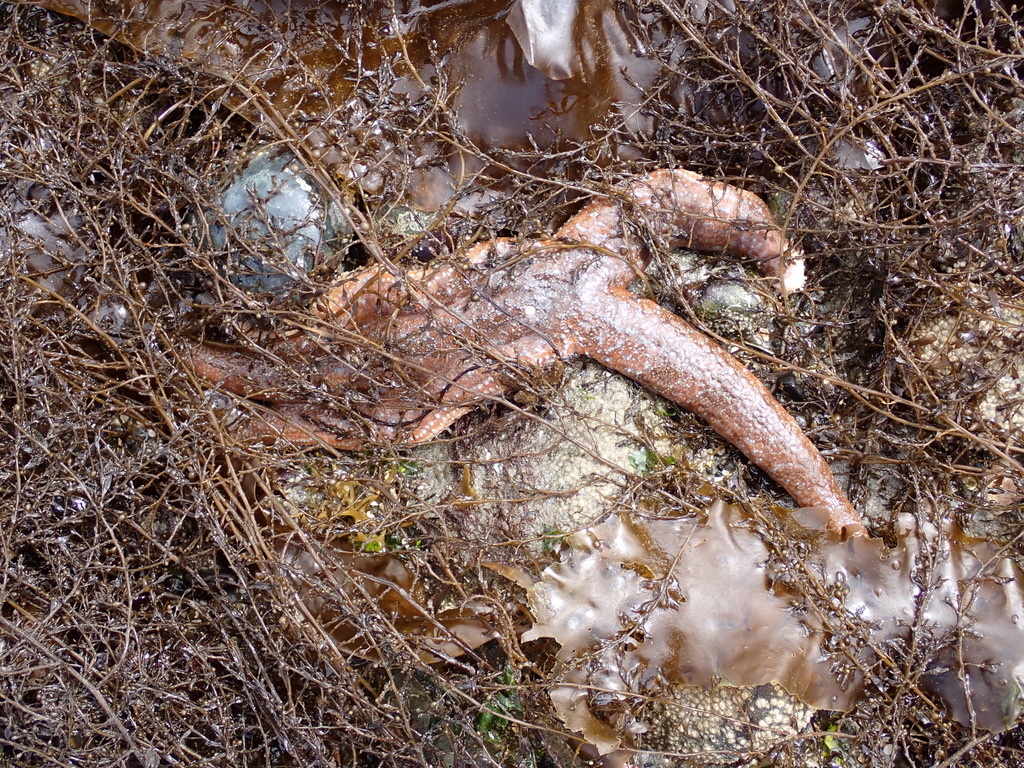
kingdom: Animalia
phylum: Echinodermata
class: Asteroidea
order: Forcipulatida
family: Asteriidae
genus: Evasterias
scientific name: Evasterias troschelii
